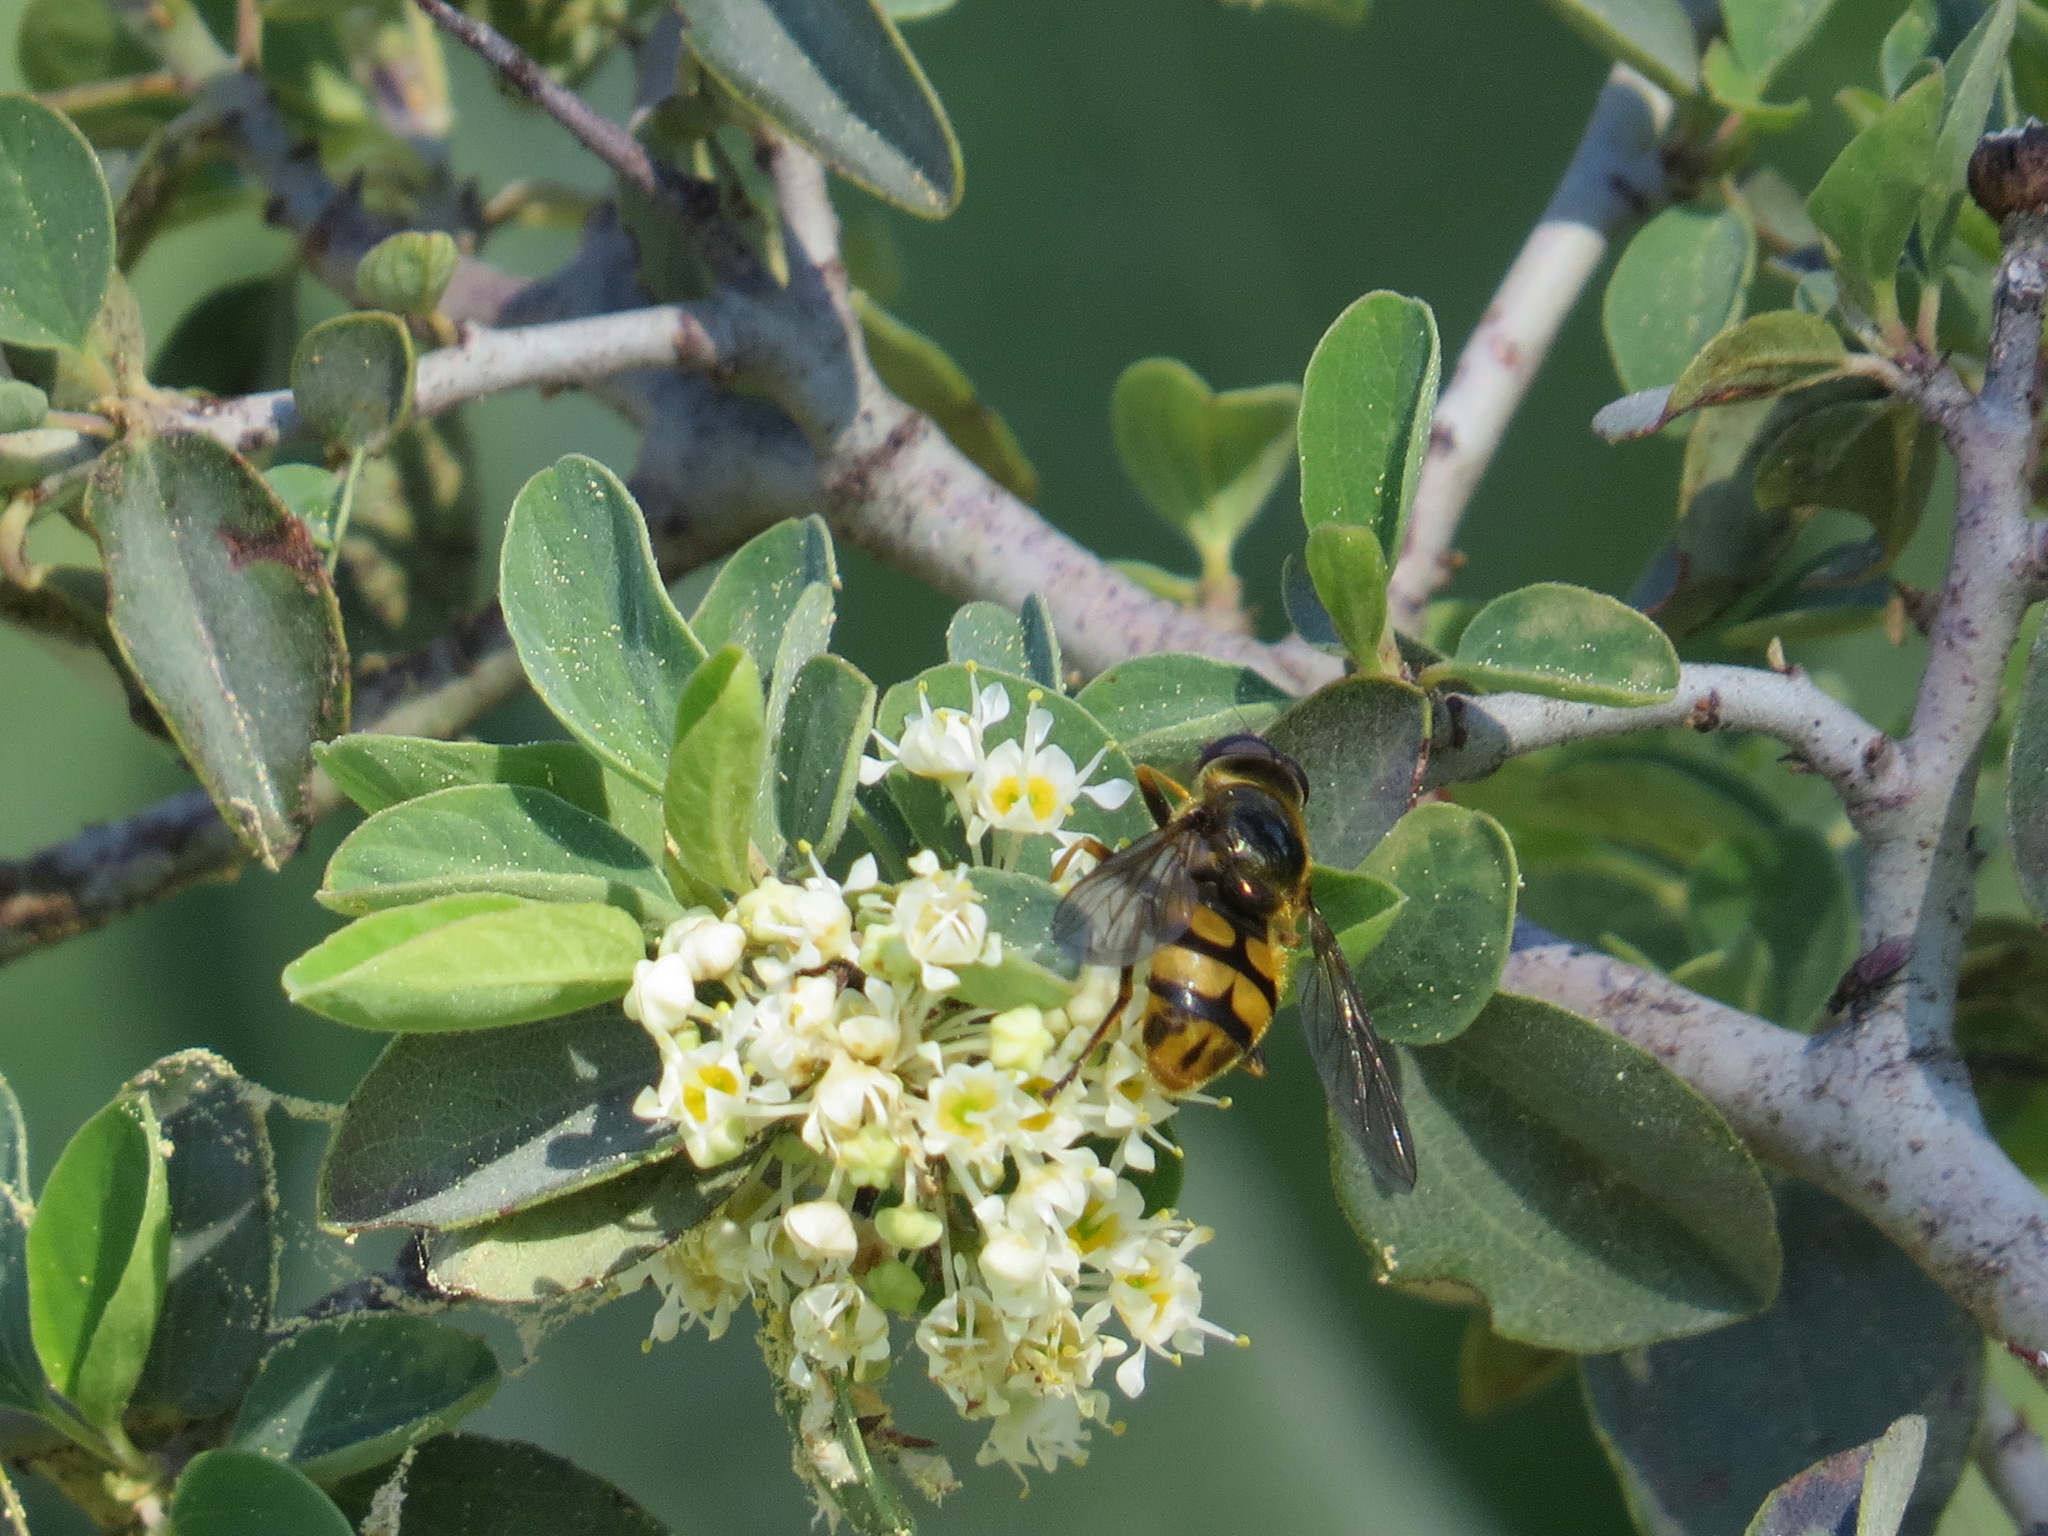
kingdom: Animalia
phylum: Arthropoda
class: Insecta
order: Diptera
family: Syrphidae
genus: Blera
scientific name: Blera scitula
